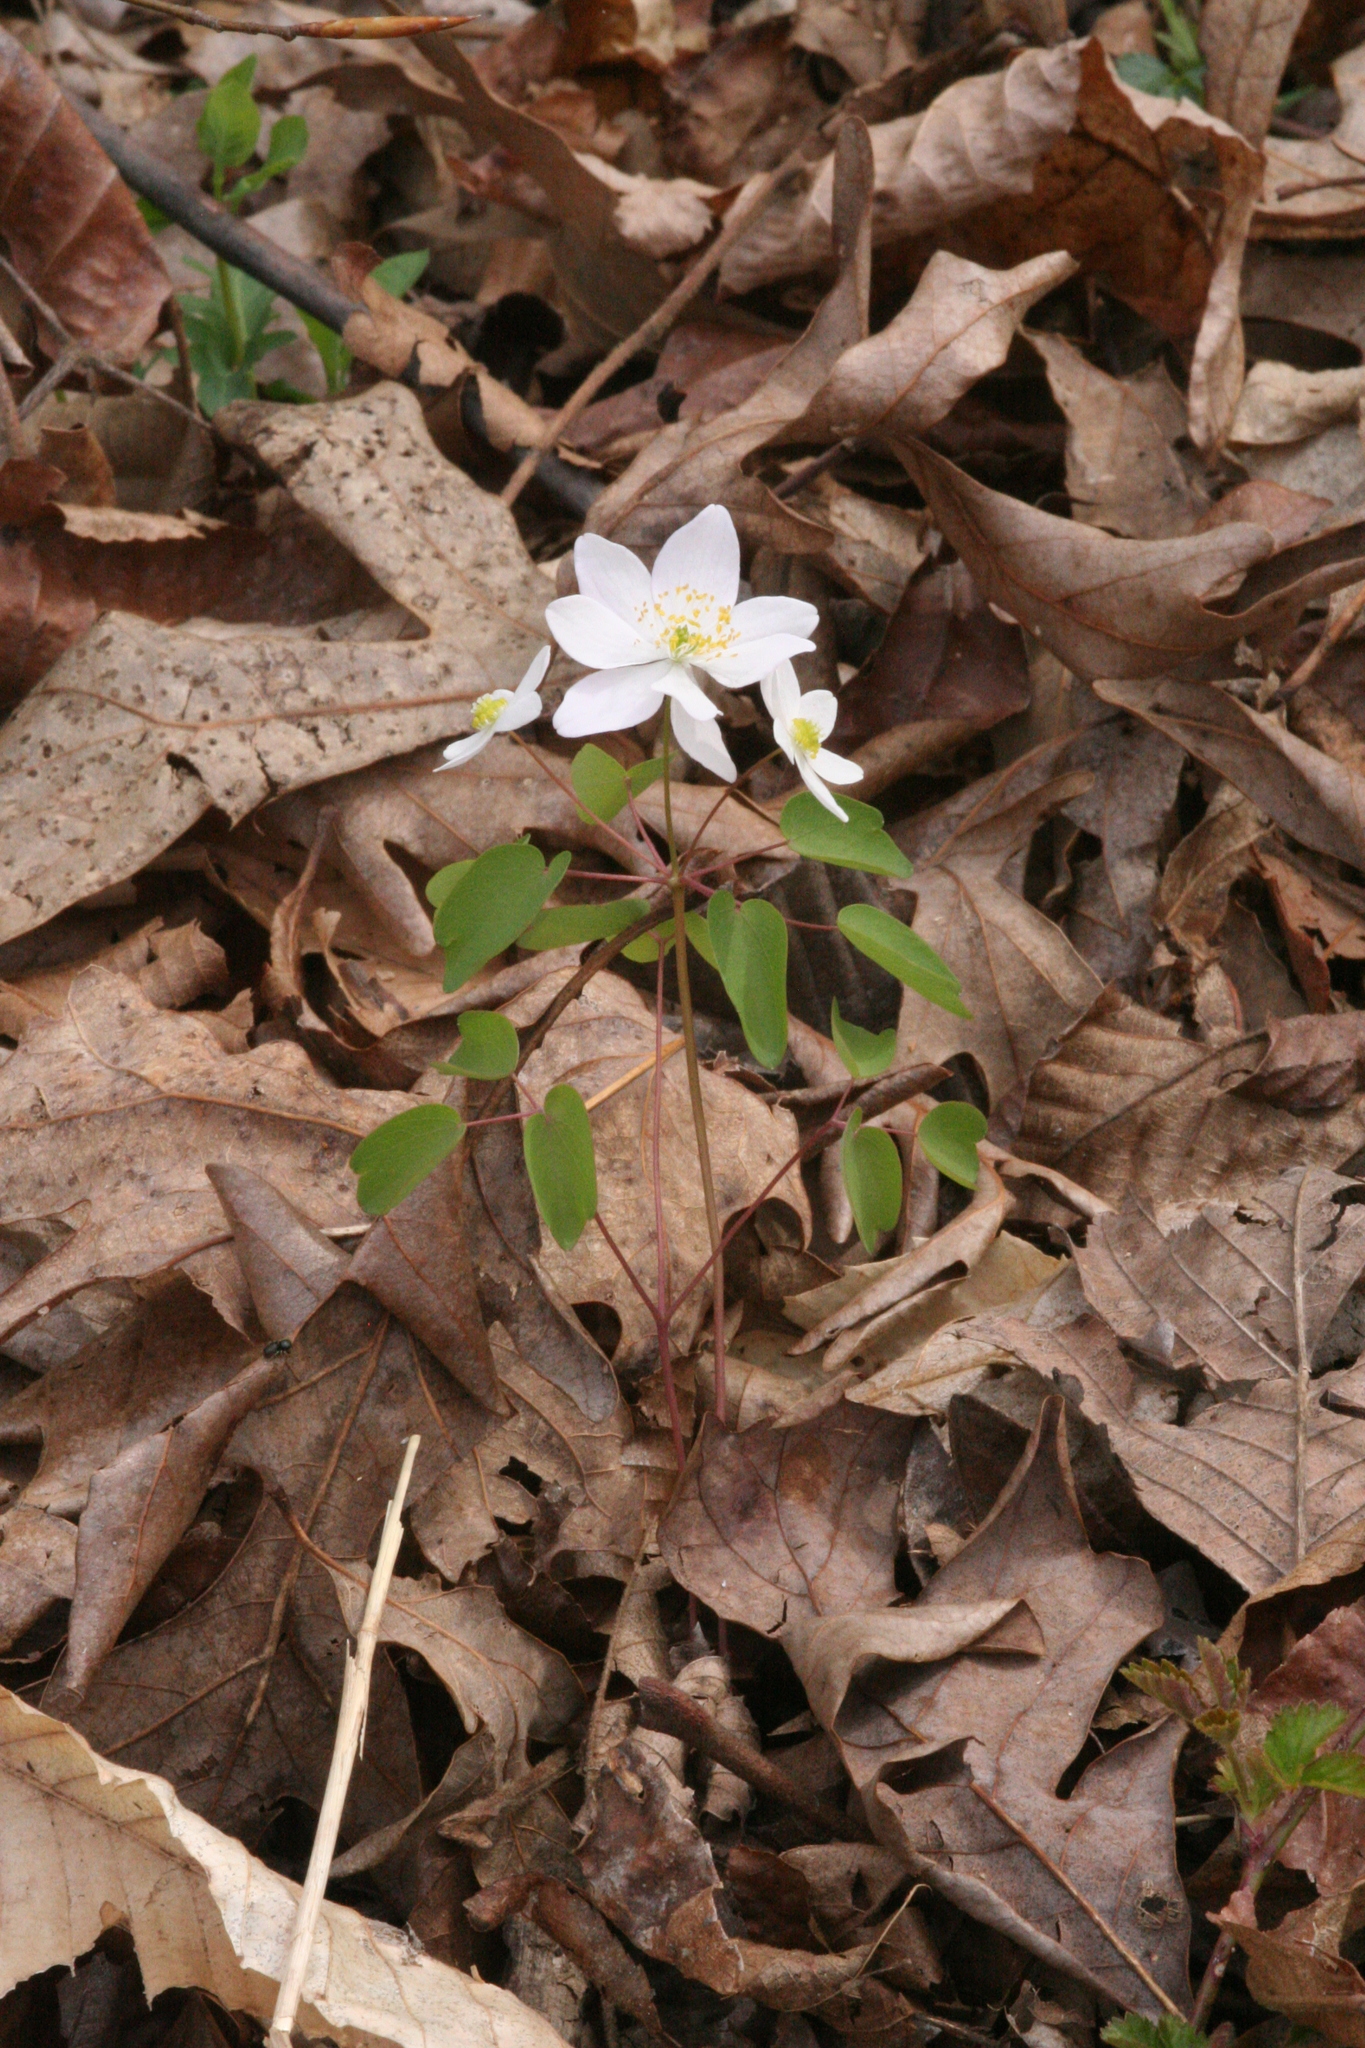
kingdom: Plantae
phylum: Tracheophyta
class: Magnoliopsida
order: Ranunculales
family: Ranunculaceae
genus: Thalictrum
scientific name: Thalictrum thalictroides
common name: Rue-anemone
